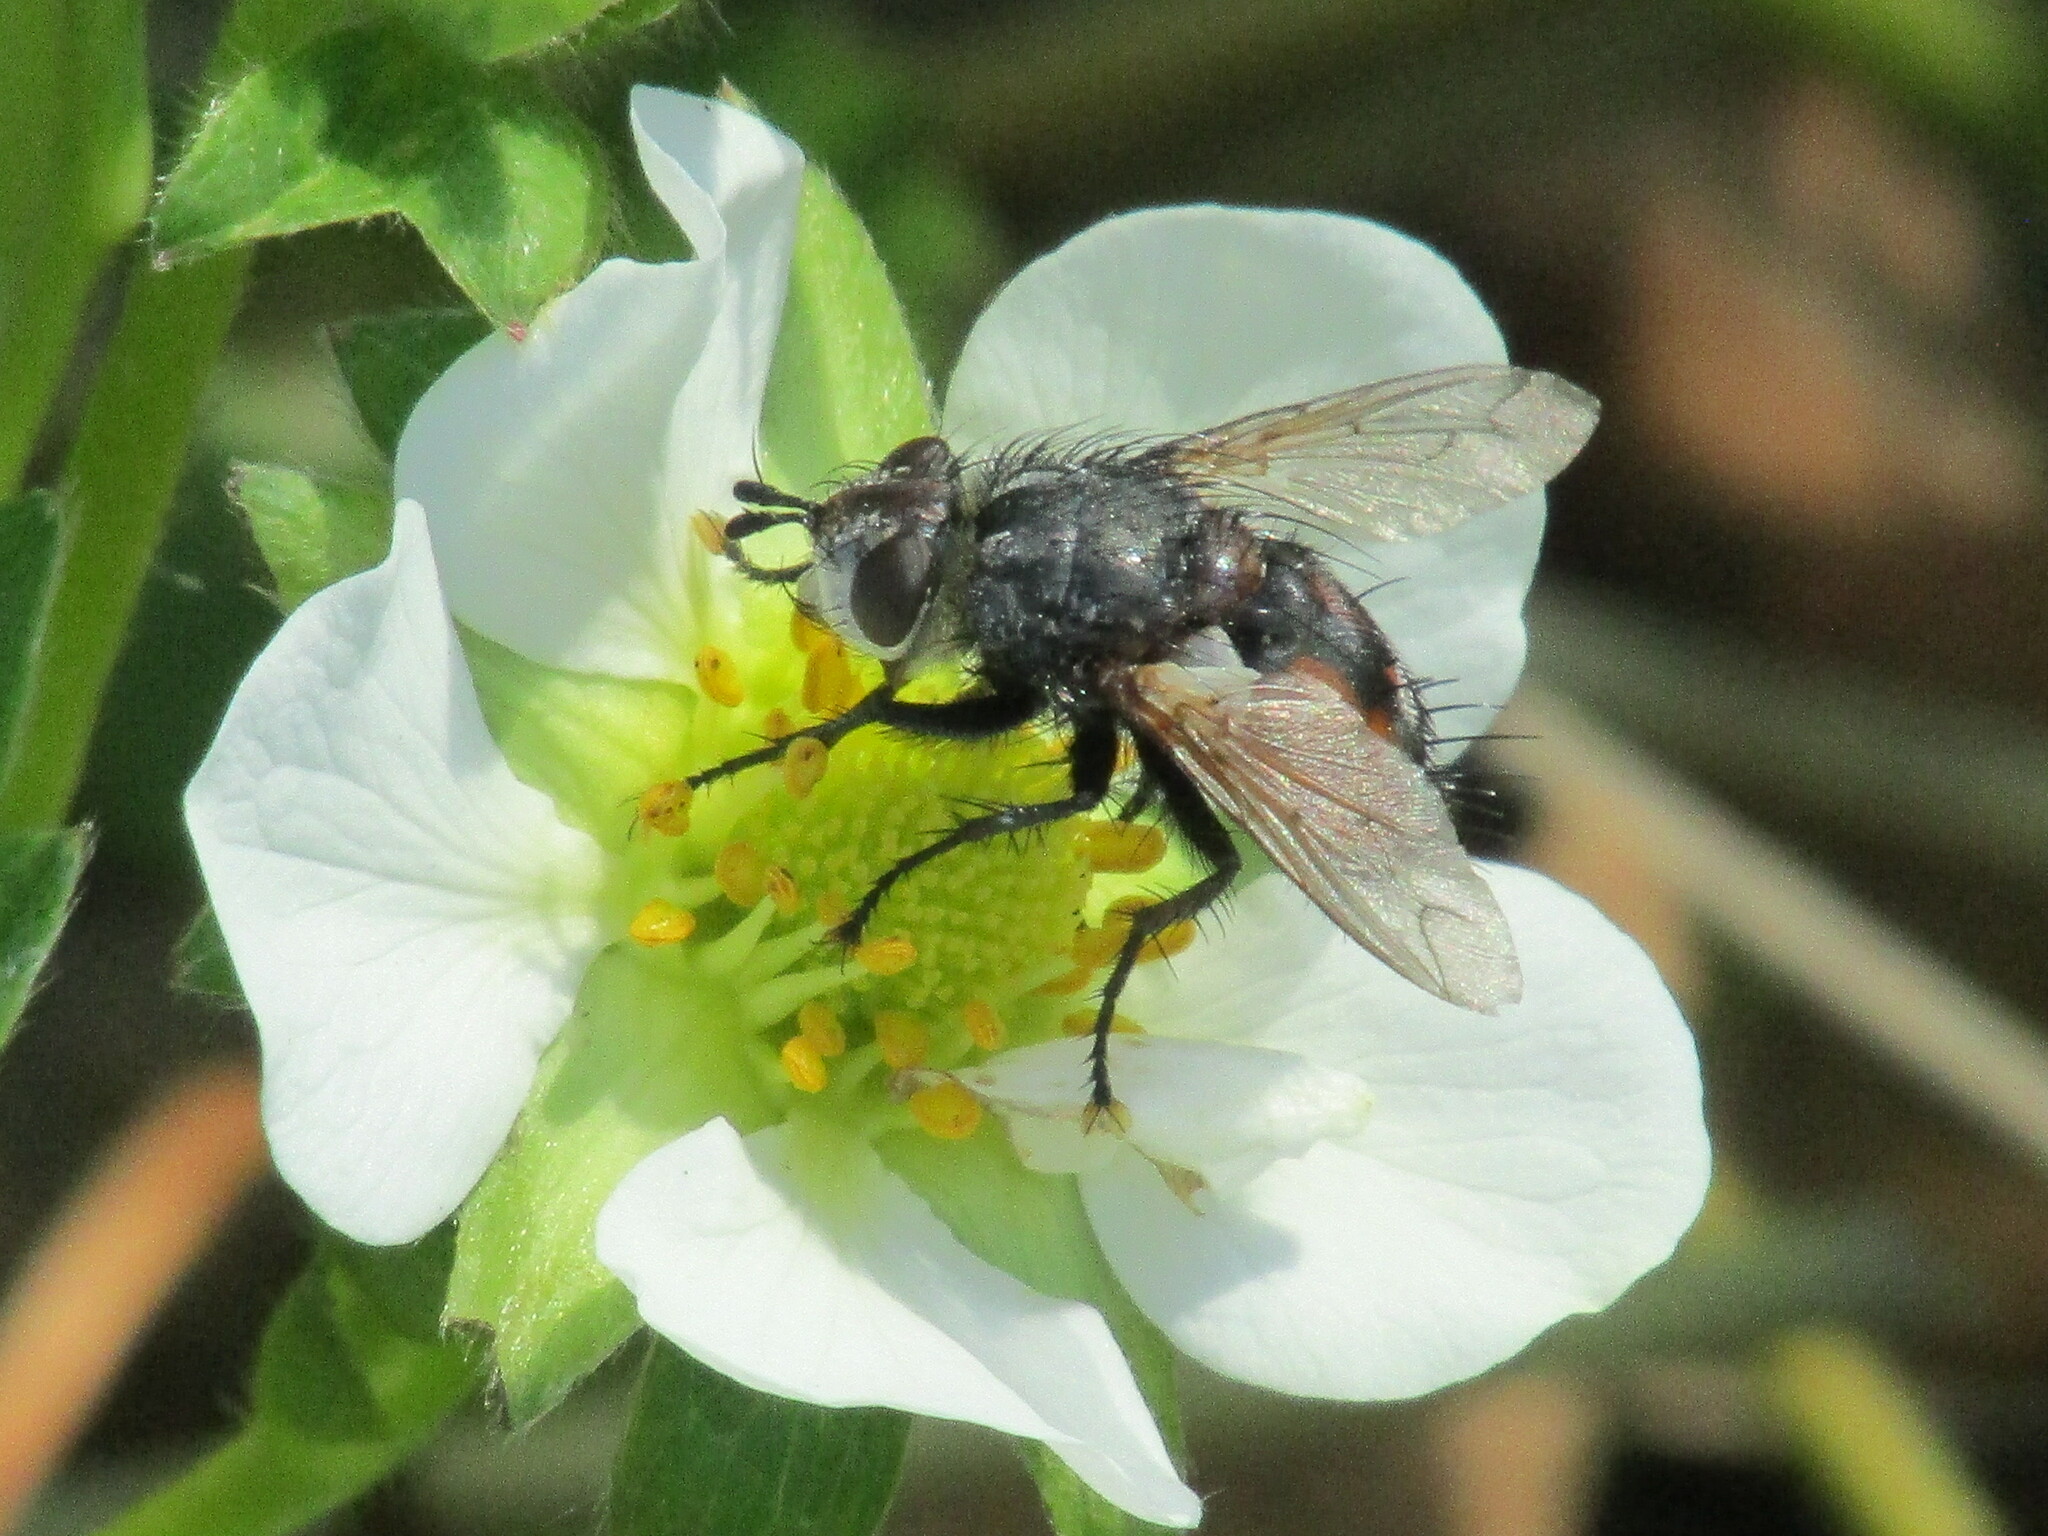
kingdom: Animalia
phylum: Arthropoda
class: Insecta
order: Diptera
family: Tachinidae
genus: Tachina
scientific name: Tachina magnicornis
